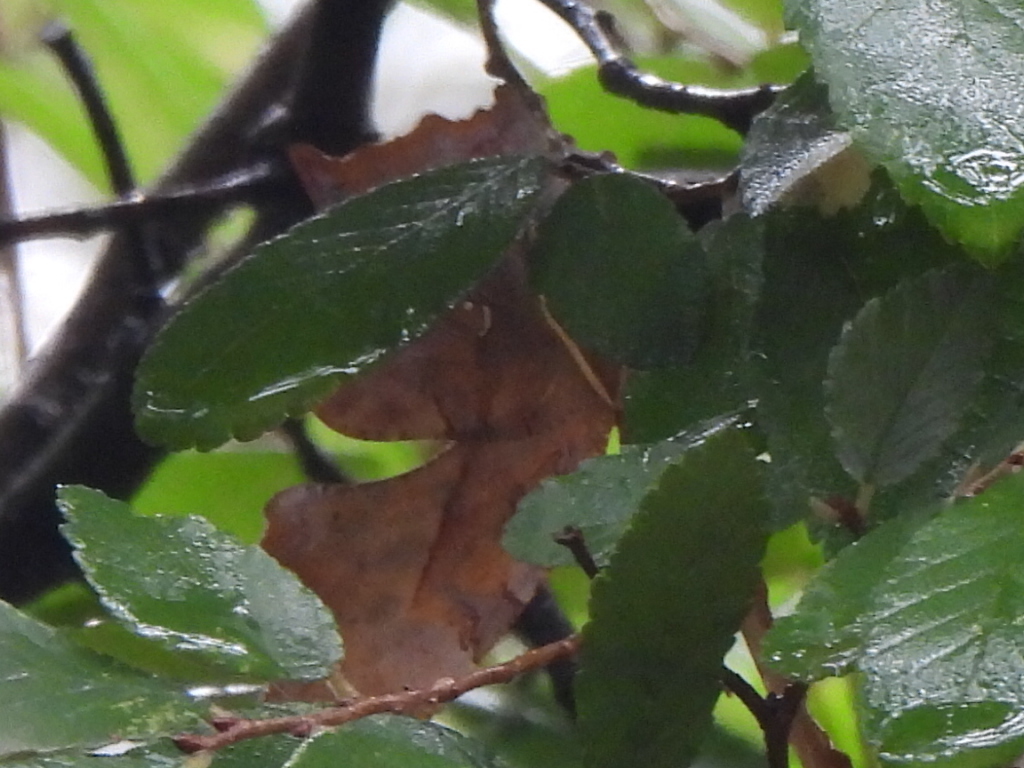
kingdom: Animalia
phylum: Arthropoda
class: Insecta
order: Lepidoptera
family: Nymphalidae
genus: Polygonia
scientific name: Polygonia interrogationis
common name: Question mark
